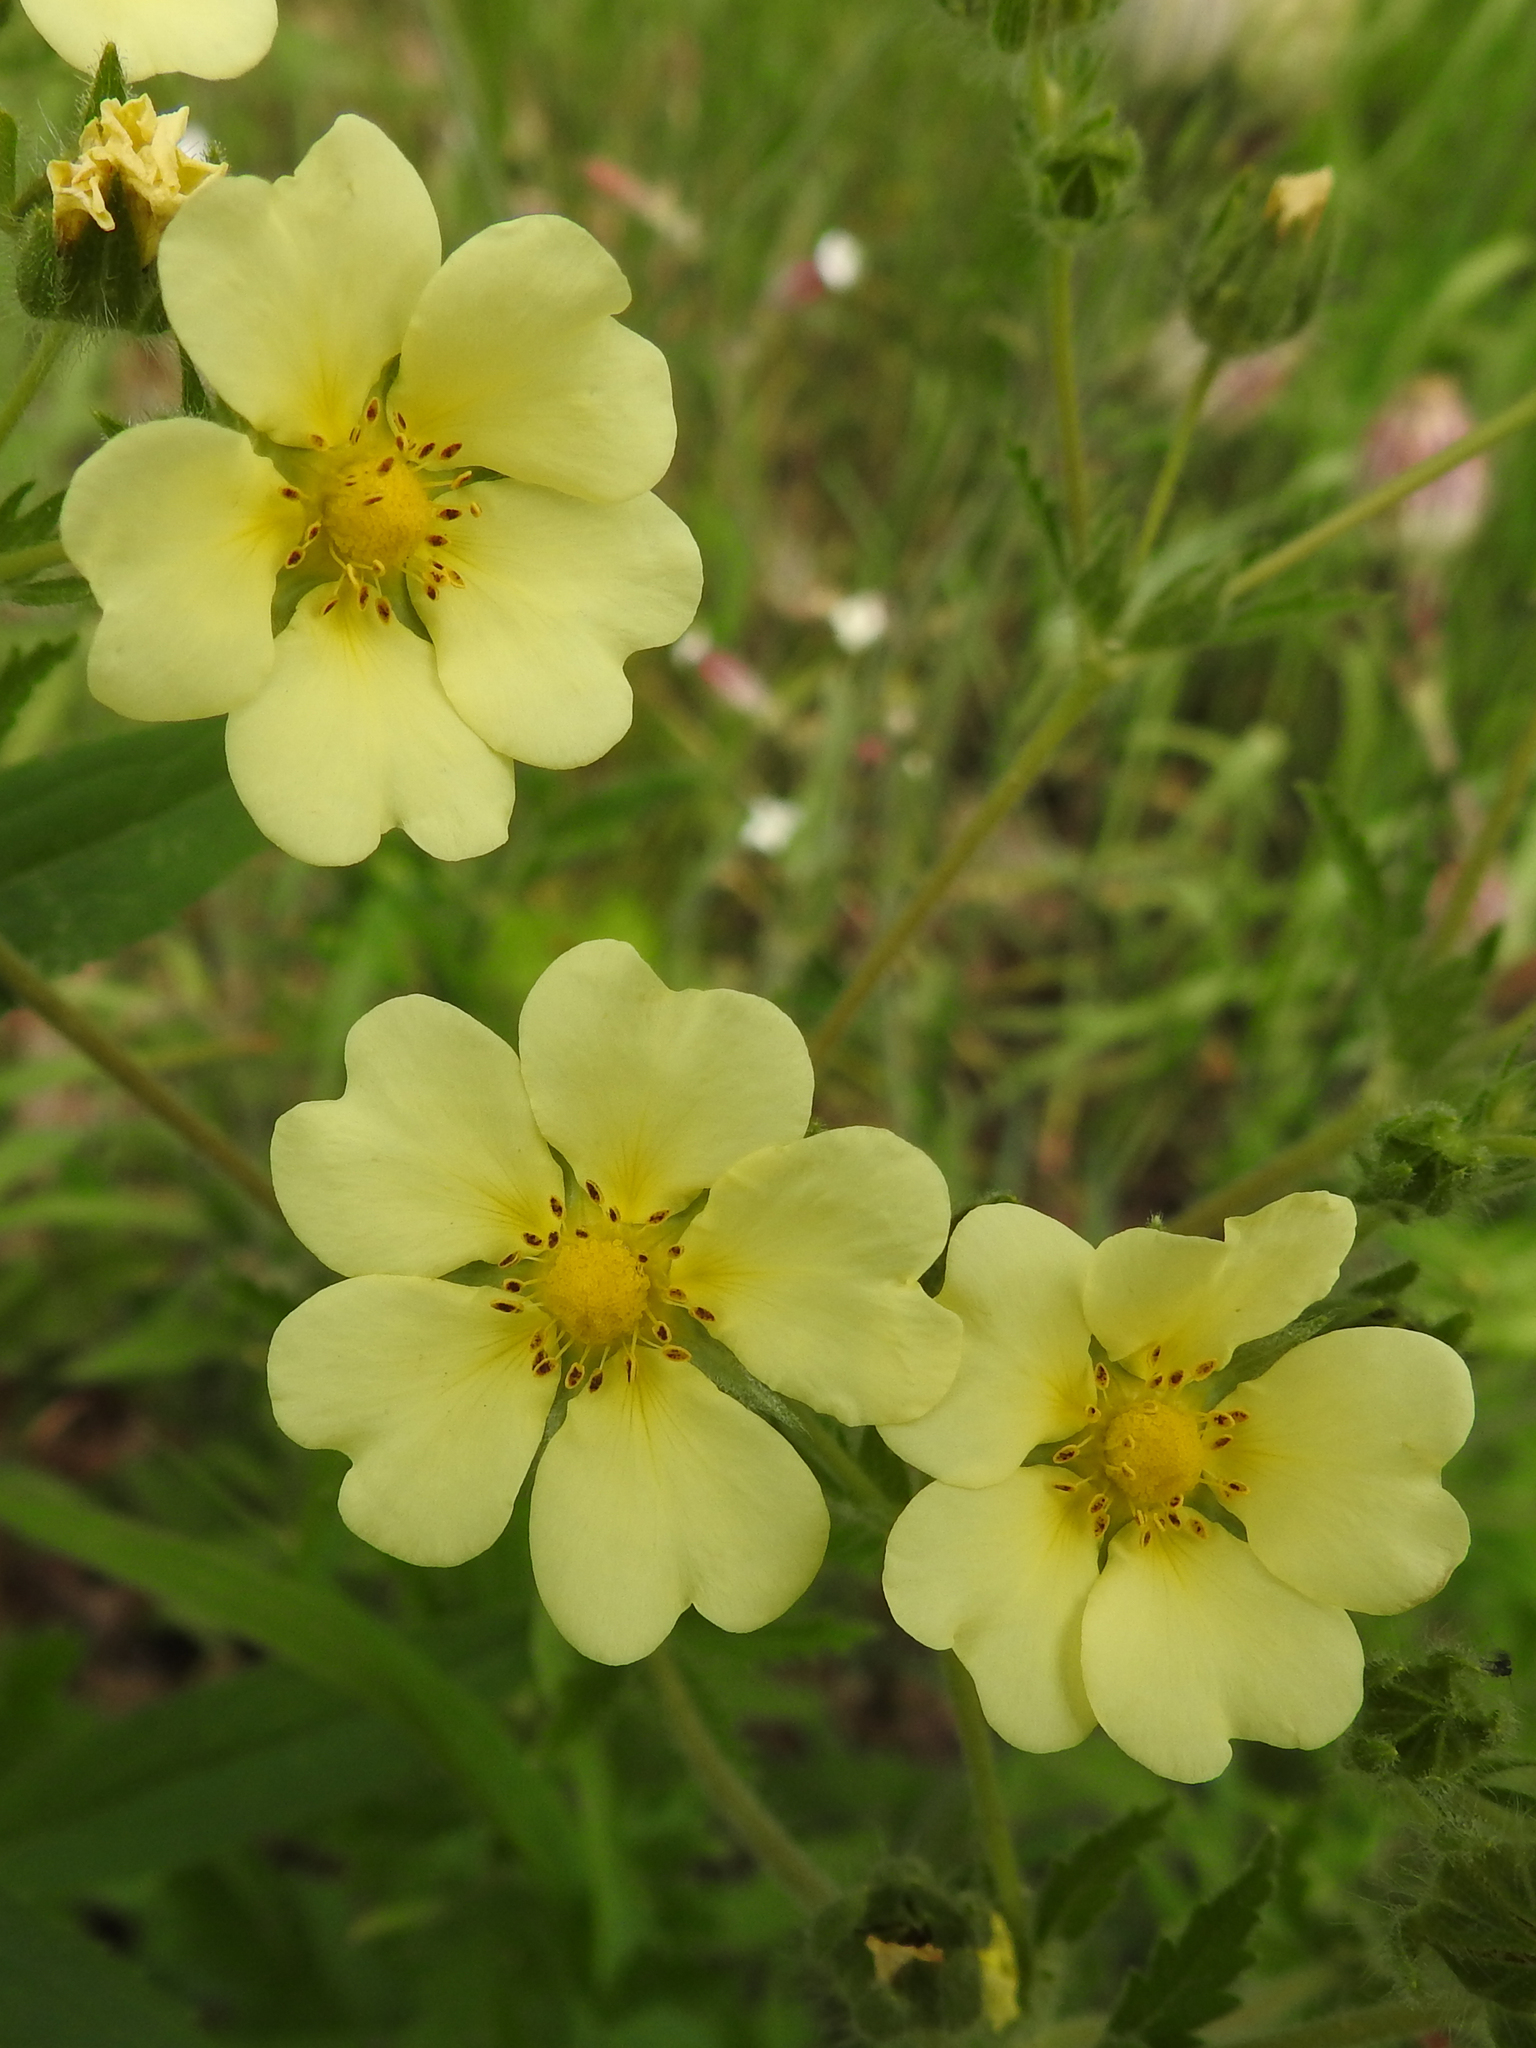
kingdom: Plantae
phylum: Tracheophyta
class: Magnoliopsida
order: Rosales
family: Rosaceae
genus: Potentilla
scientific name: Potentilla recta
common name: Sulphur cinquefoil
